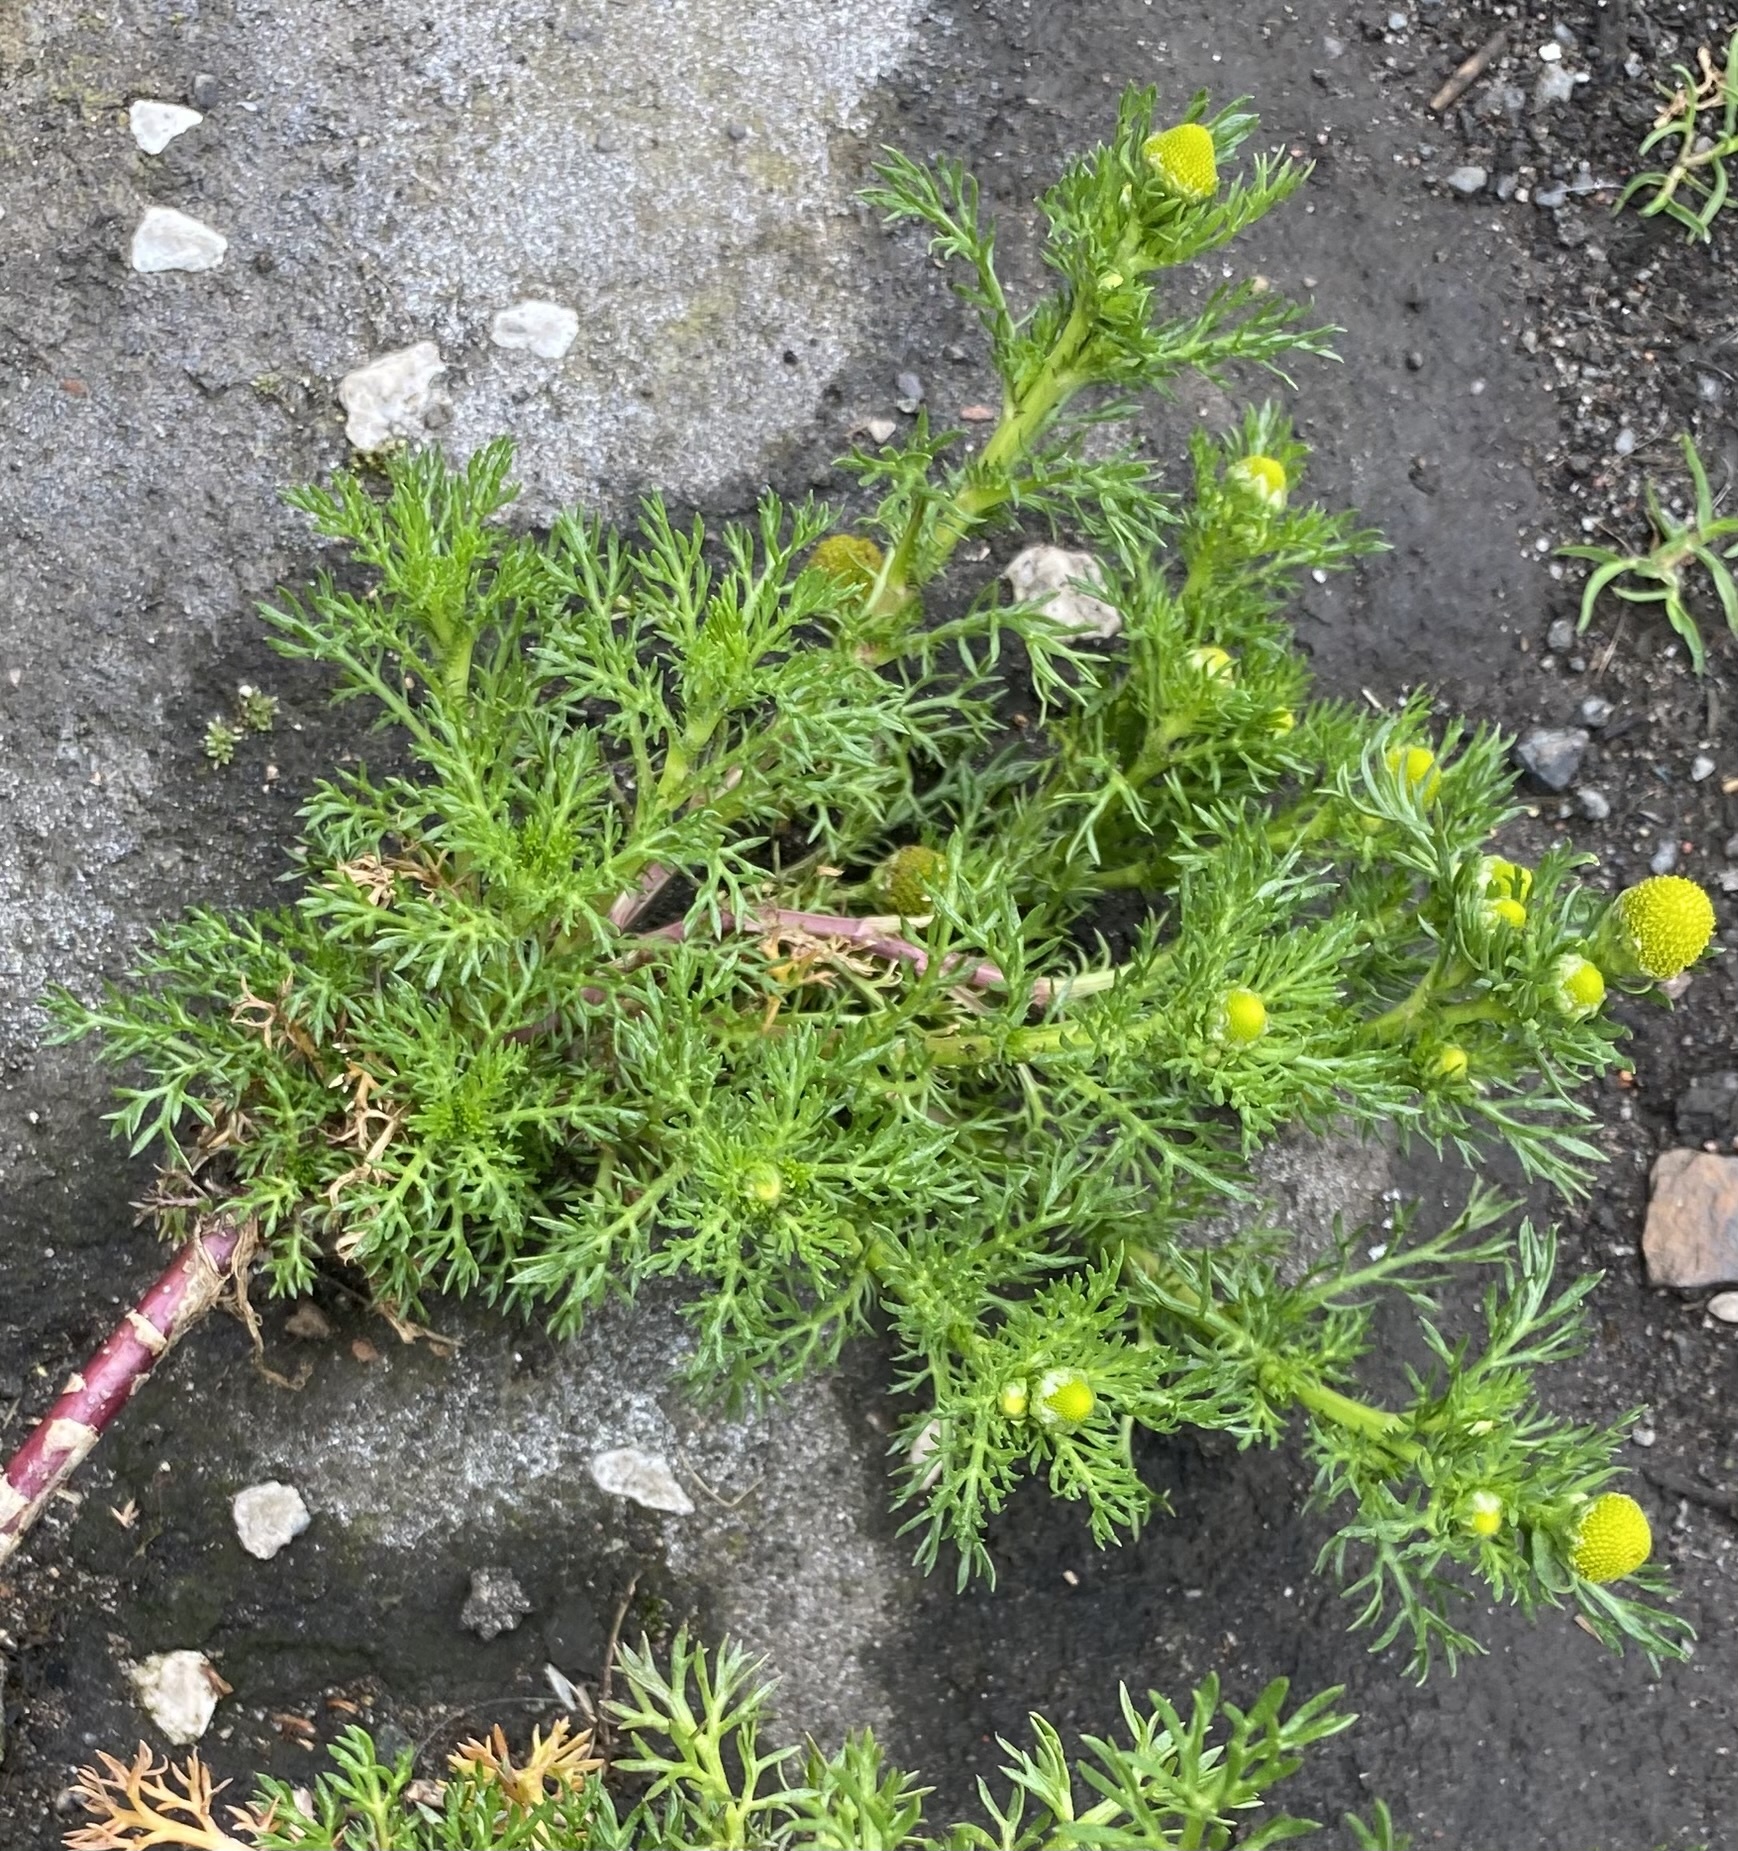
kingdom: Plantae
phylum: Tracheophyta
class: Magnoliopsida
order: Asterales
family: Asteraceae
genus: Matricaria
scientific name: Matricaria discoidea
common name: Disc mayweed
